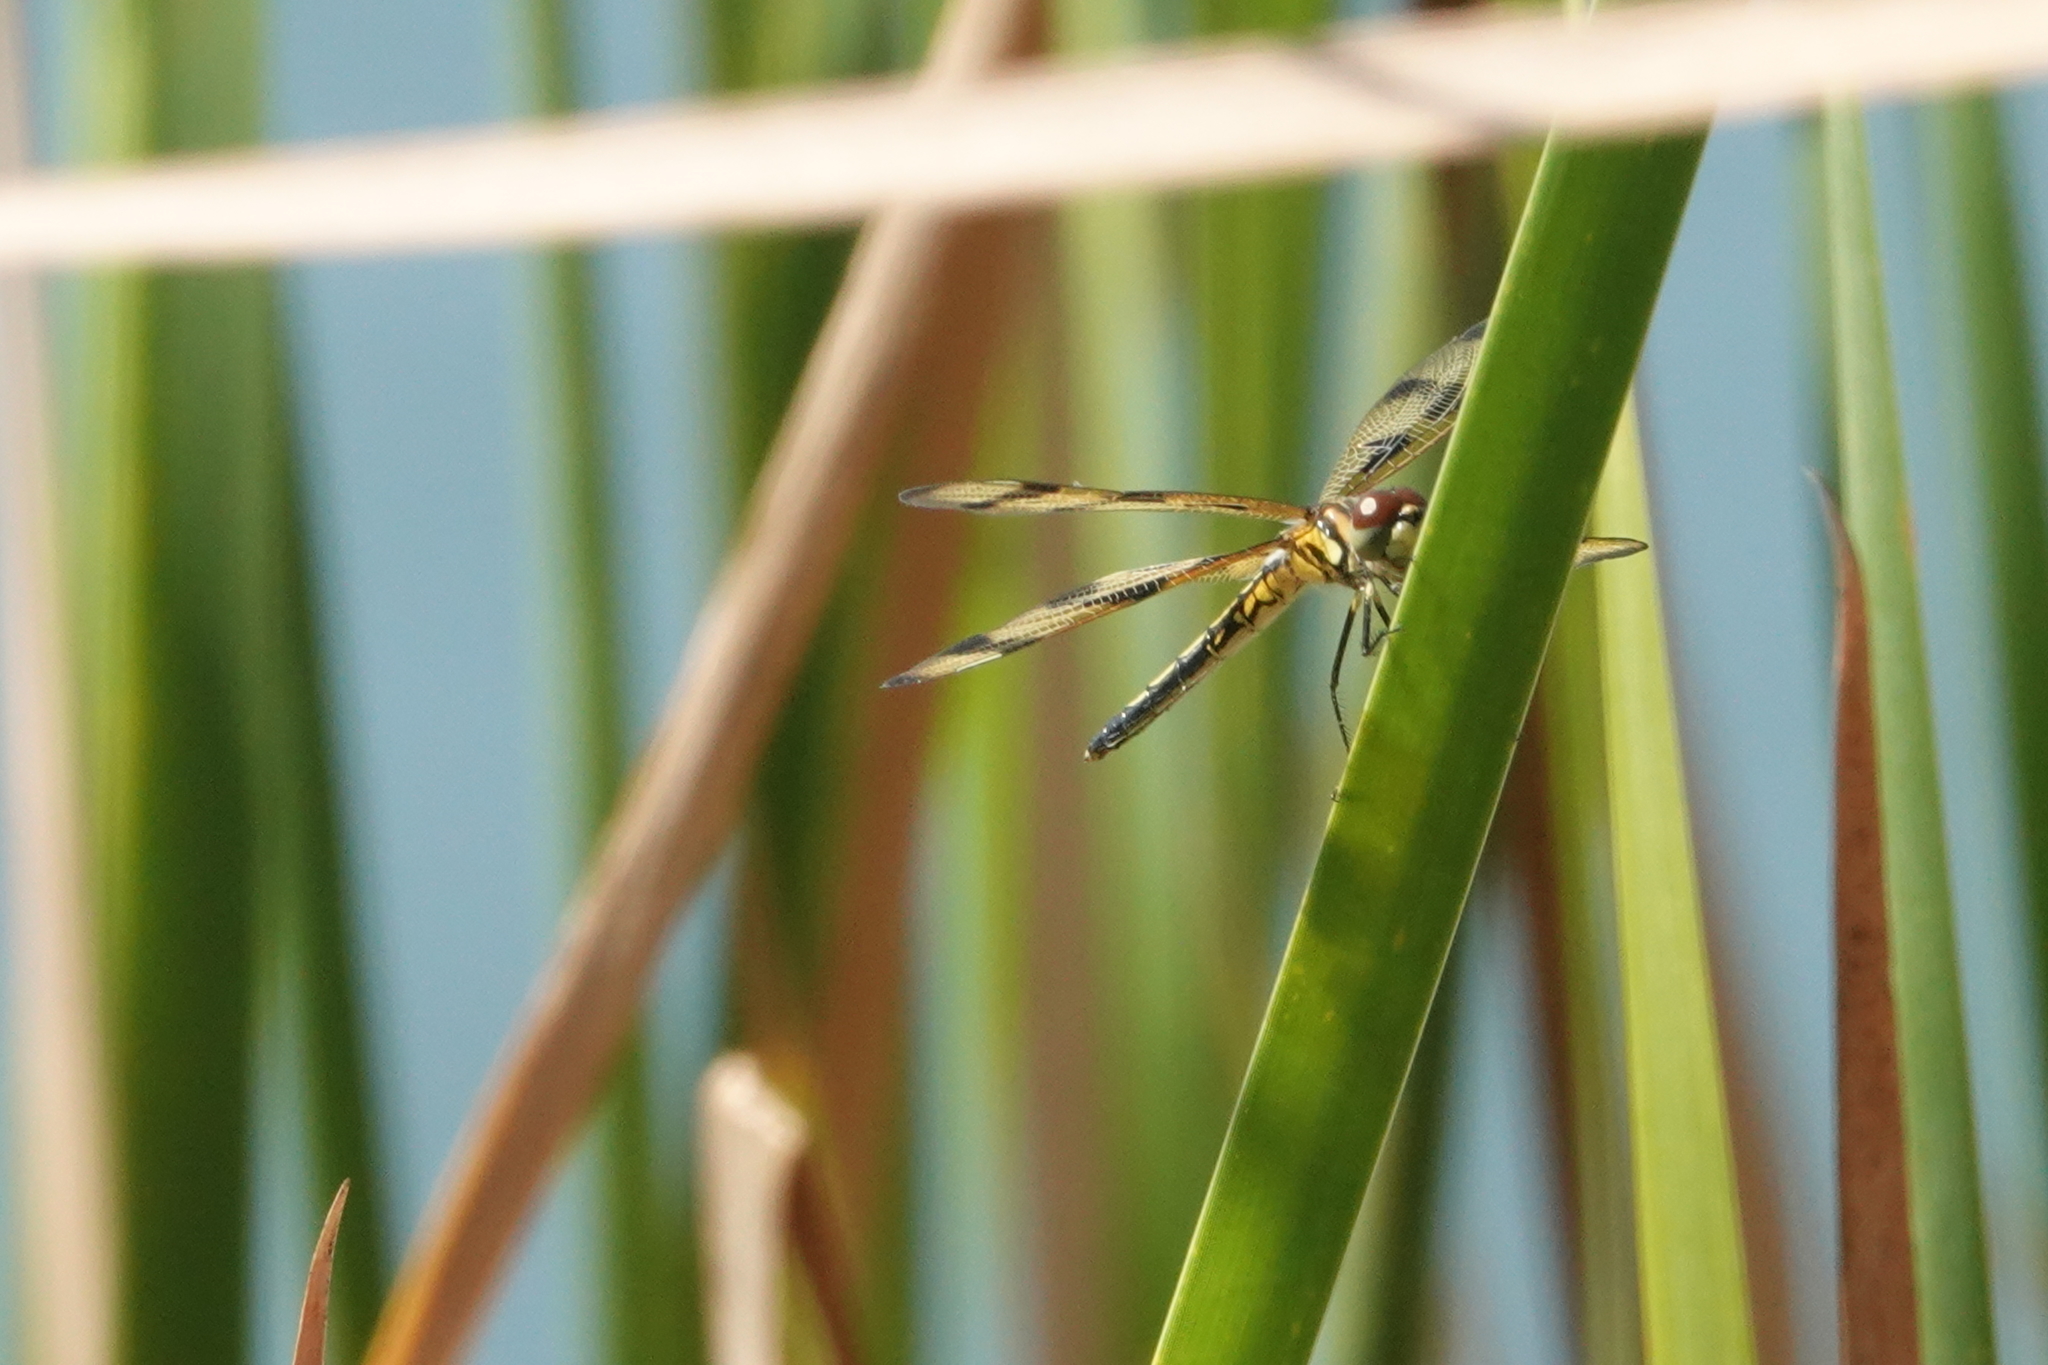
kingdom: Animalia
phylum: Arthropoda
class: Insecta
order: Odonata
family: Libellulidae
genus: Celithemis
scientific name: Celithemis eponina
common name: Halloween pennant
